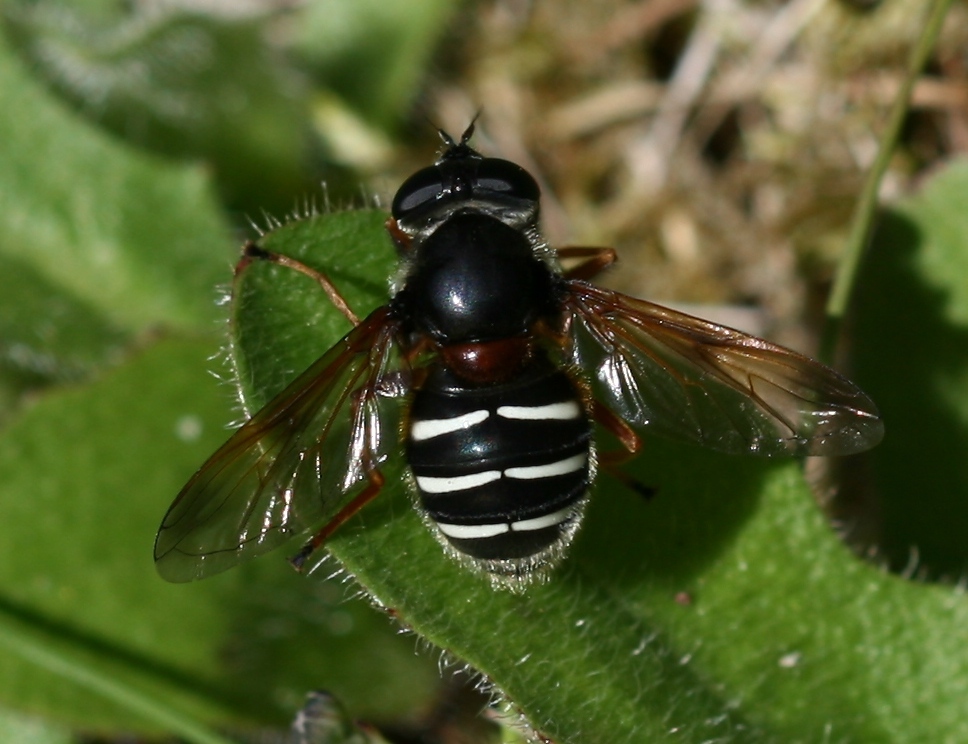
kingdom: Animalia
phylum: Arthropoda
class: Insecta
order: Diptera
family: Syrphidae
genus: Sericomyia
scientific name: Sericomyia lappona
